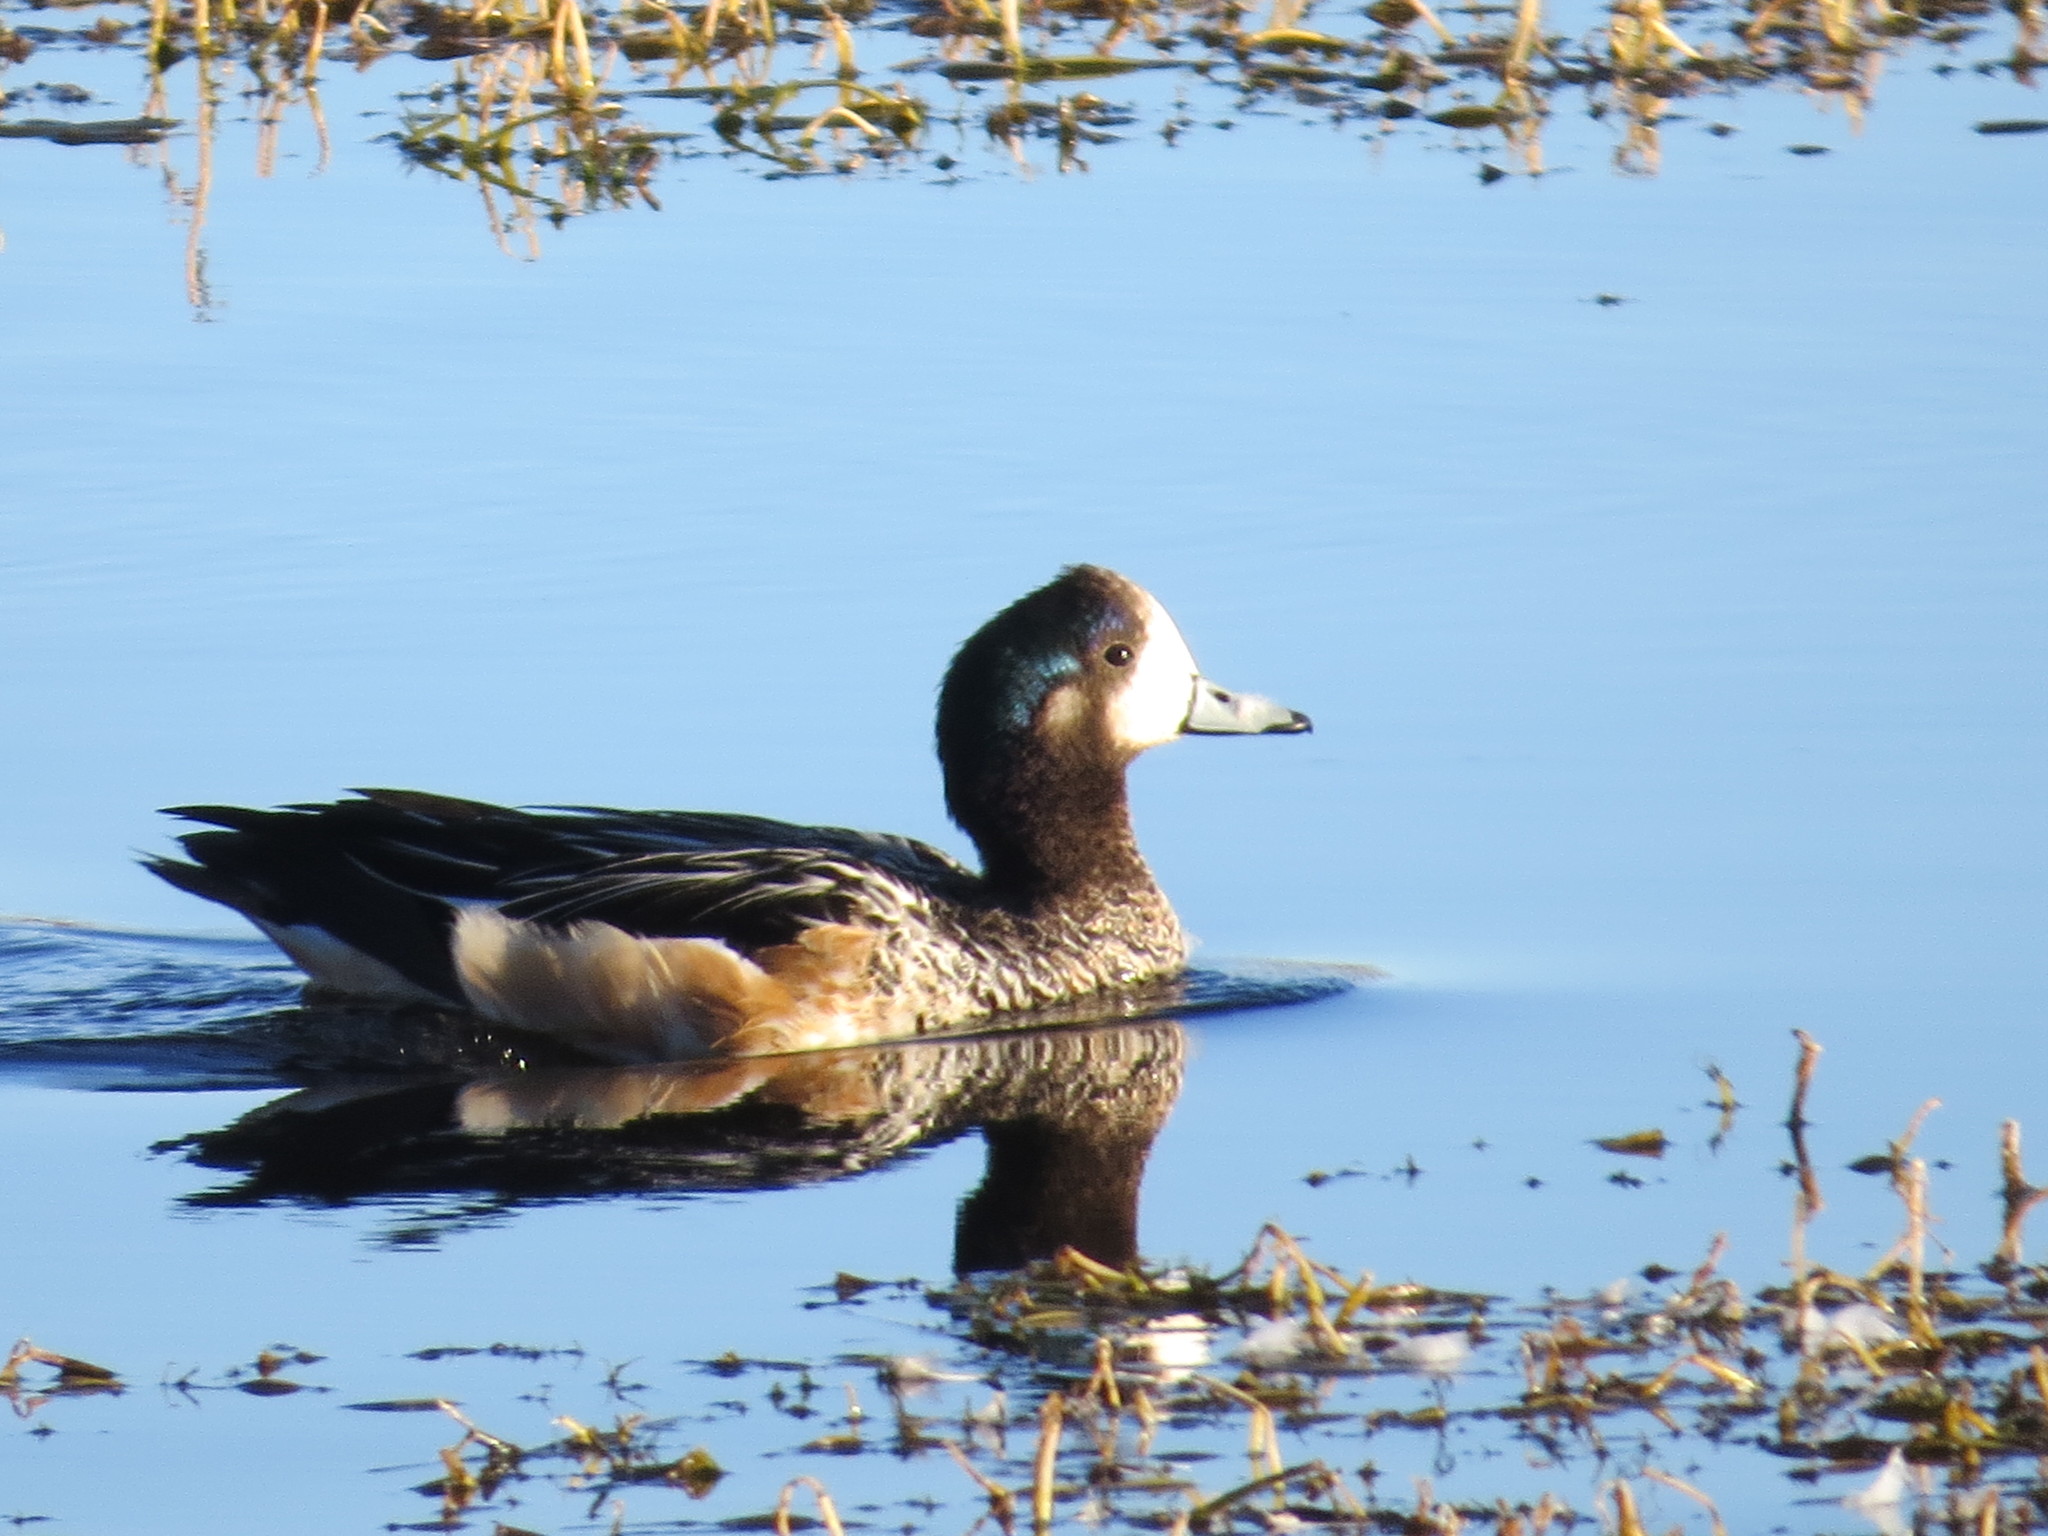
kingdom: Animalia
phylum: Chordata
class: Aves
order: Anseriformes
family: Anatidae
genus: Mareca
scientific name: Mareca sibilatrix
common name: Chiloe wigeon
